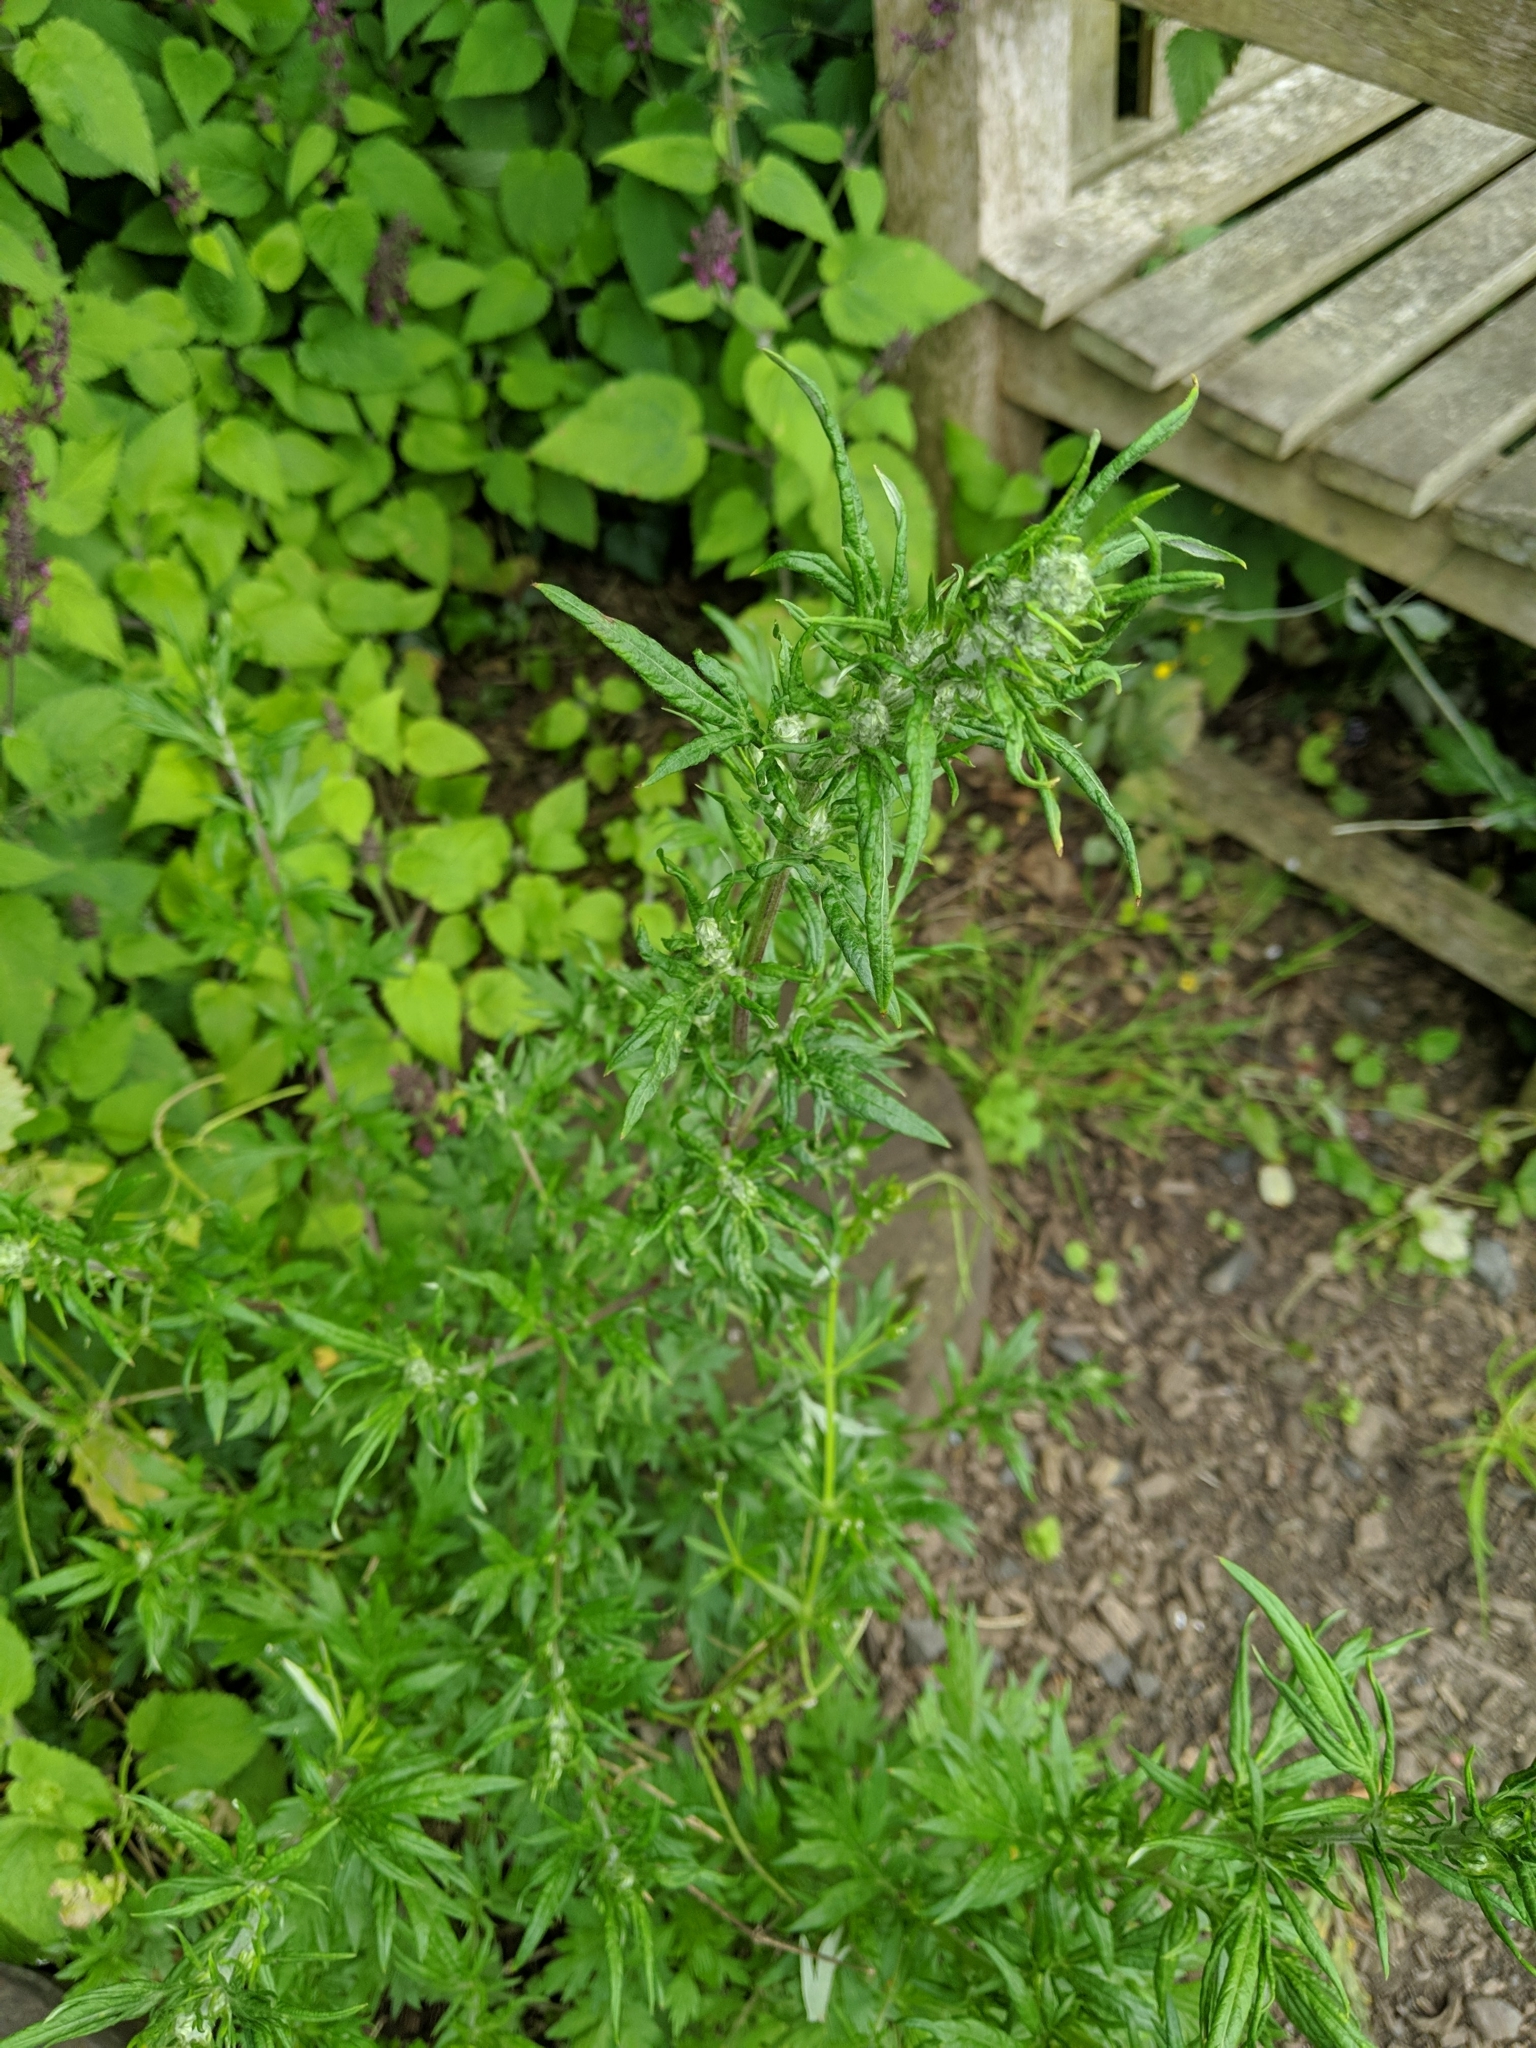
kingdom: Plantae
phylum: Tracheophyta
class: Magnoliopsida
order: Asterales
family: Asteraceae
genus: Artemisia
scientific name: Artemisia vulgaris
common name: Mugwort
